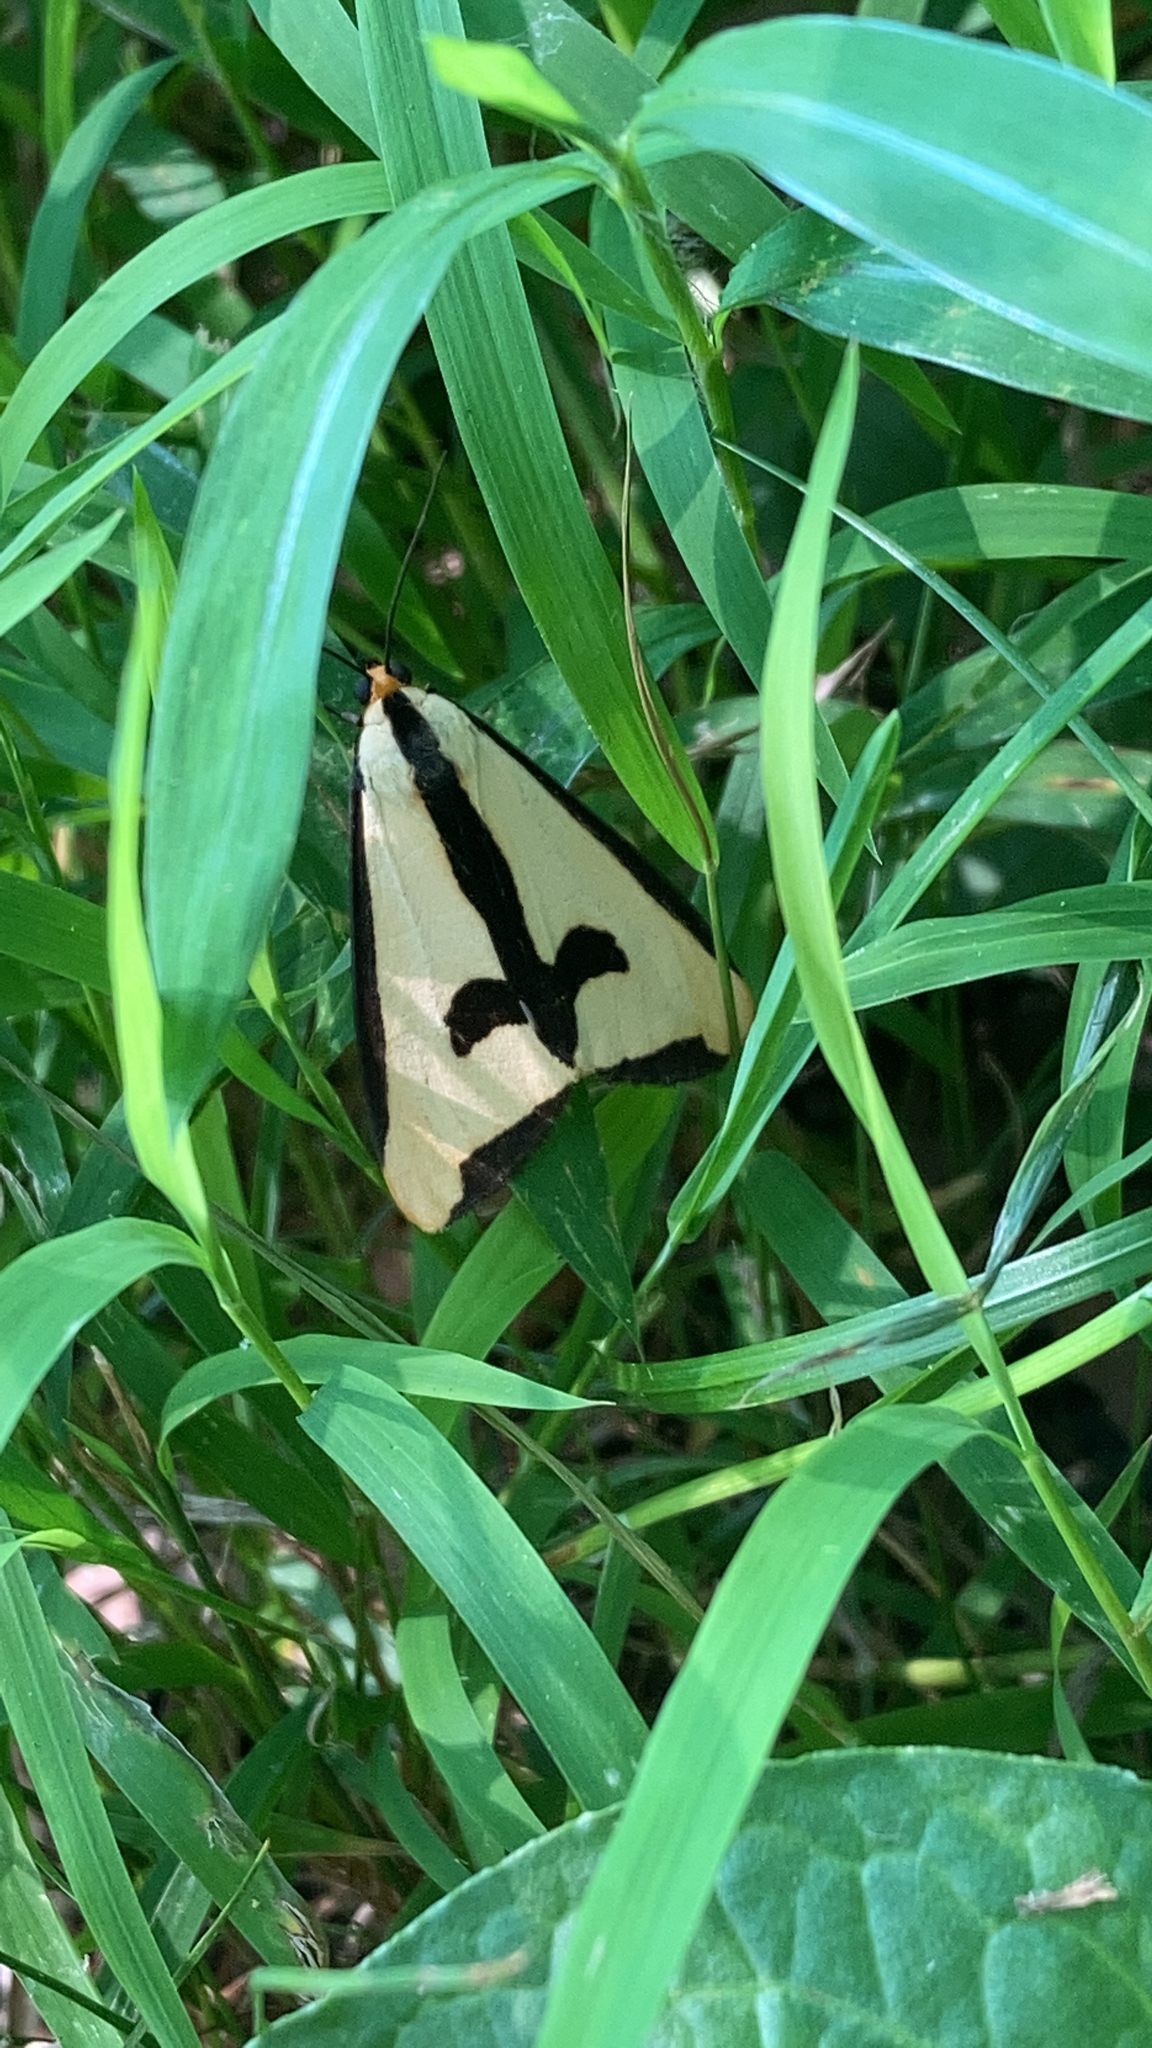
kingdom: Animalia
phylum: Arthropoda
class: Insecta
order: Lepidoptera
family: Erebidae
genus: Haploa
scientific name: Haploa clymene
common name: Clymene moth
